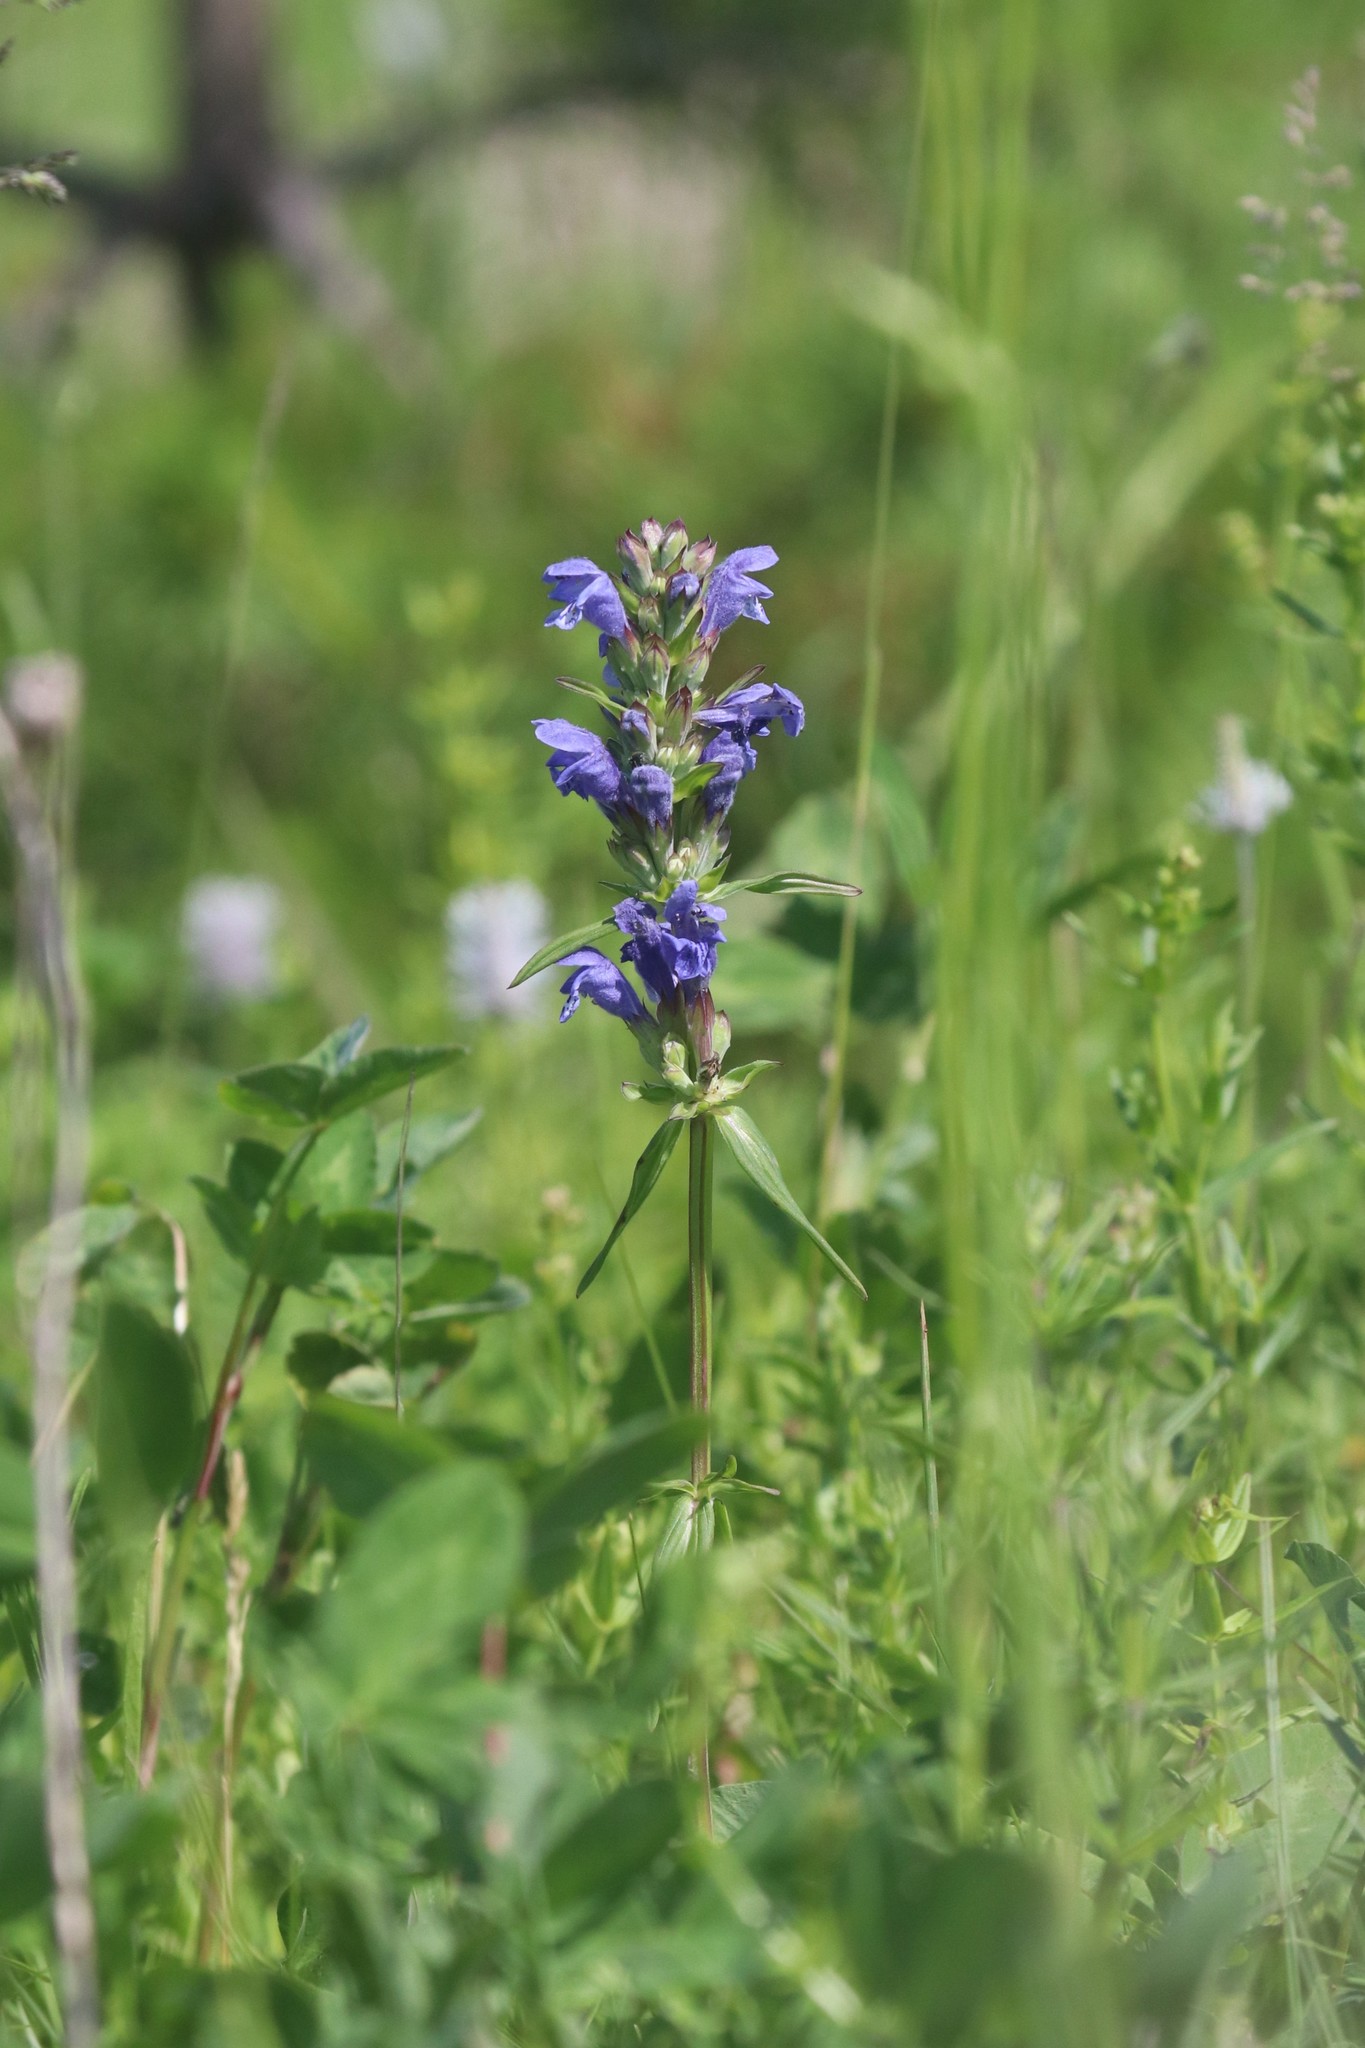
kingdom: Plantae
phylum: Tracheophyta
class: Magnoliopsida
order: Lamiales
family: Lamiaceae
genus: Dracocephalum
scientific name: Dracocephalum ruyschiana
